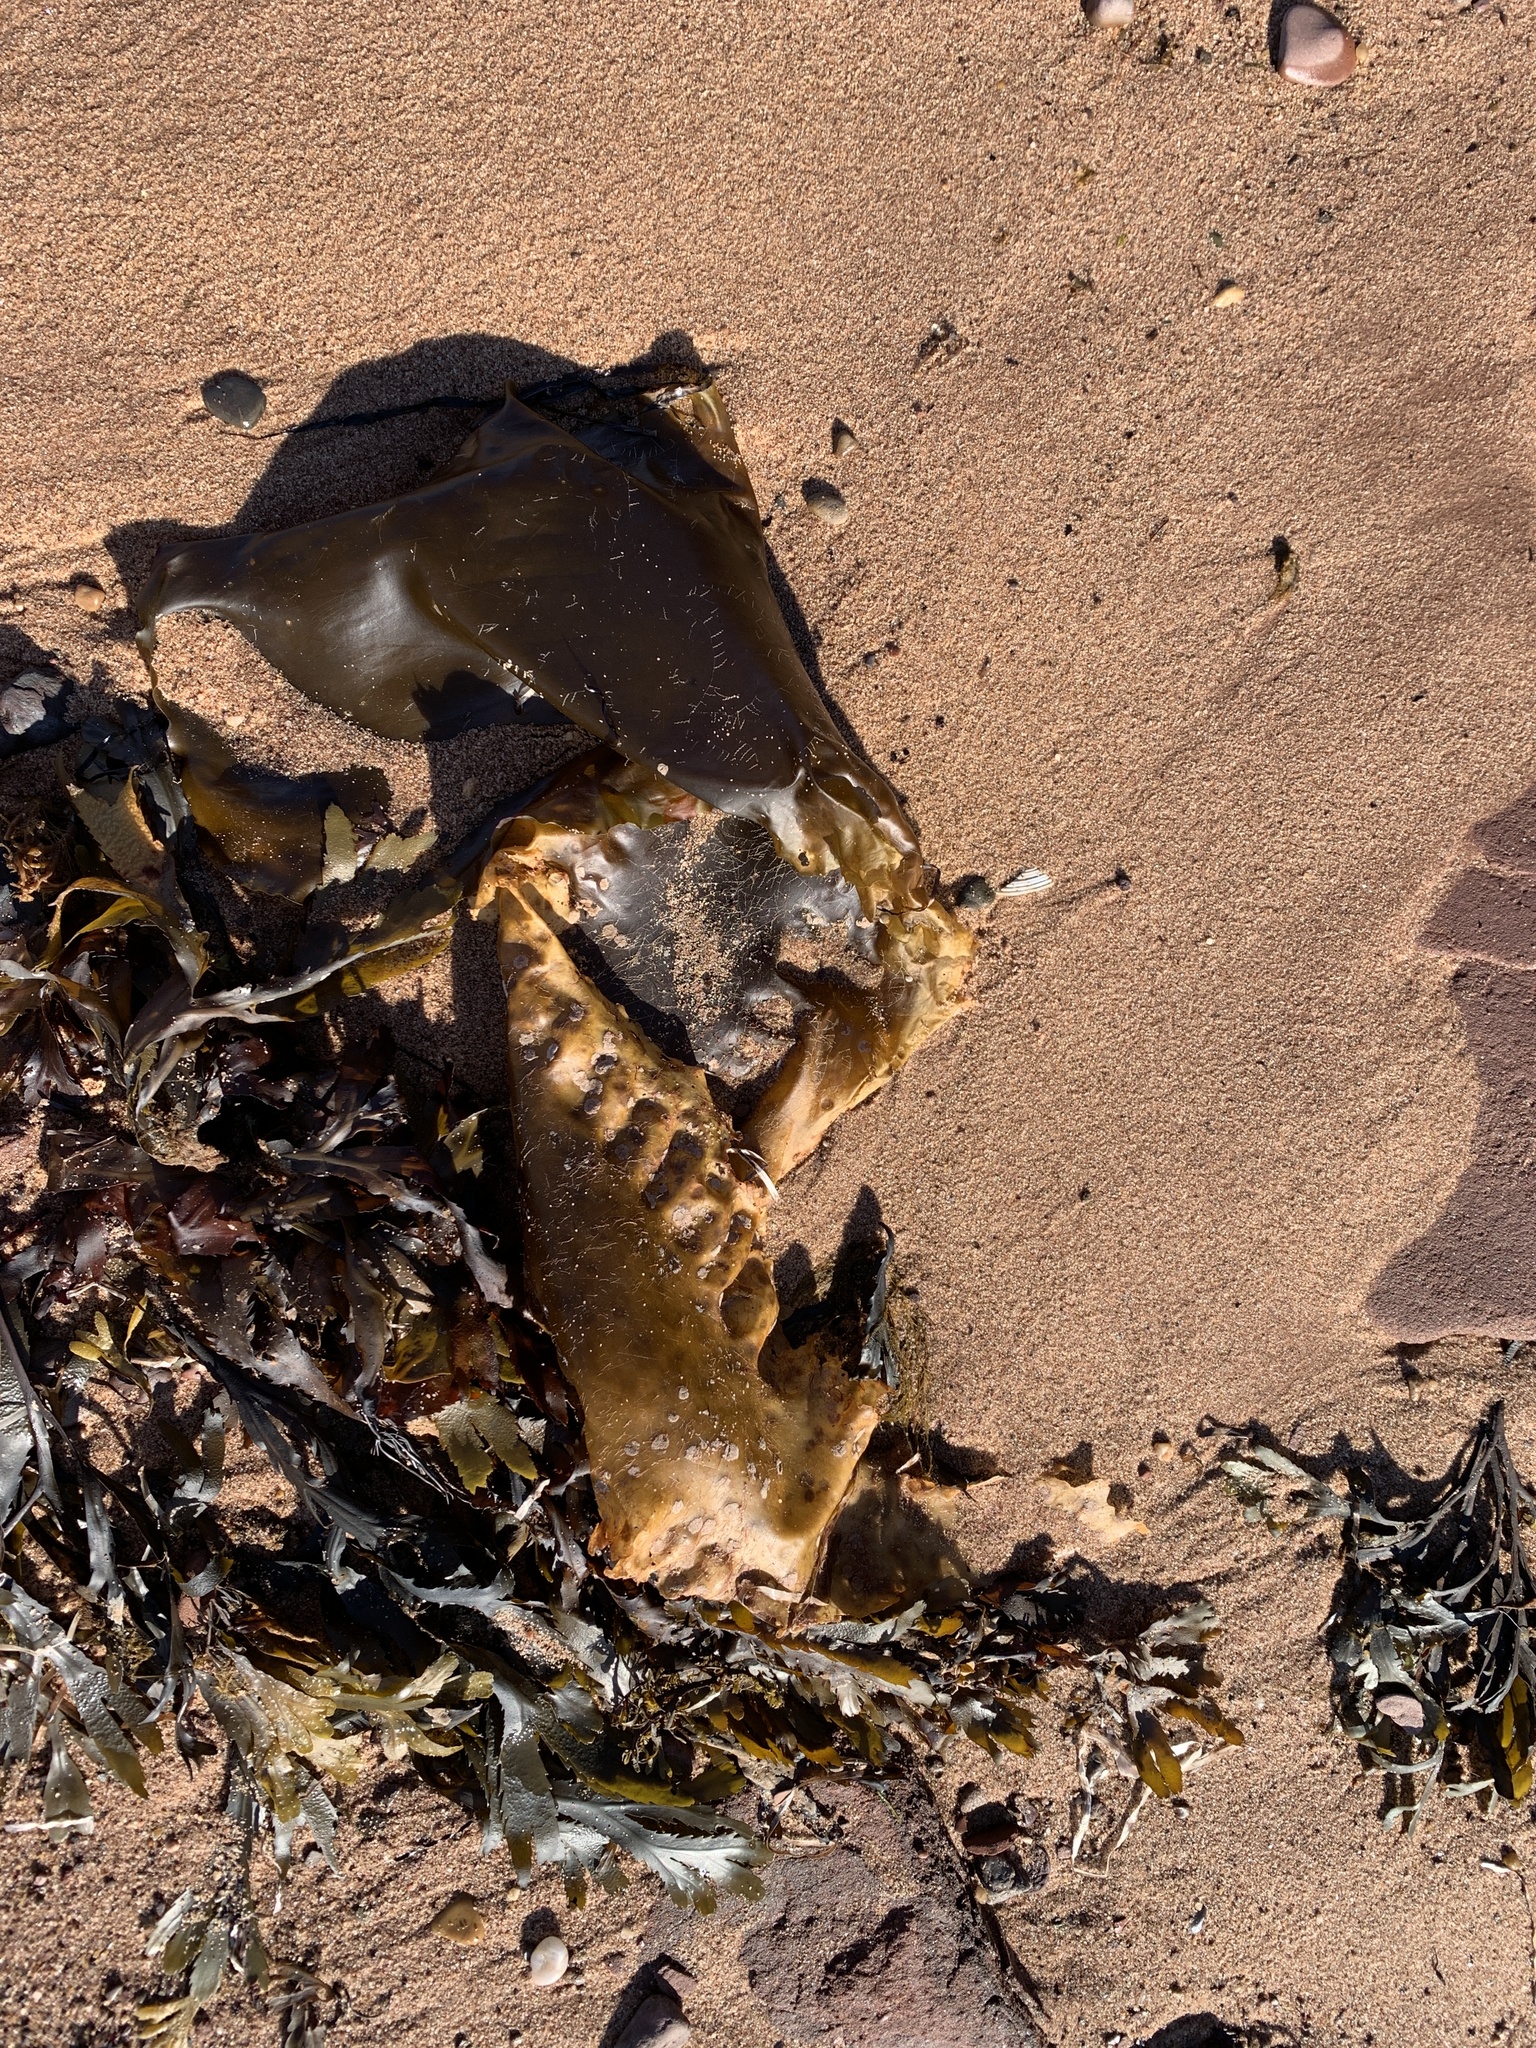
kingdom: Chromista
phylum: Ochrophyta
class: Phaeophyceae
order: Laminariales
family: Laminariaceae
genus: Saccharina
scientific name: Saccharina latissima
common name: Poor man's weather glass
